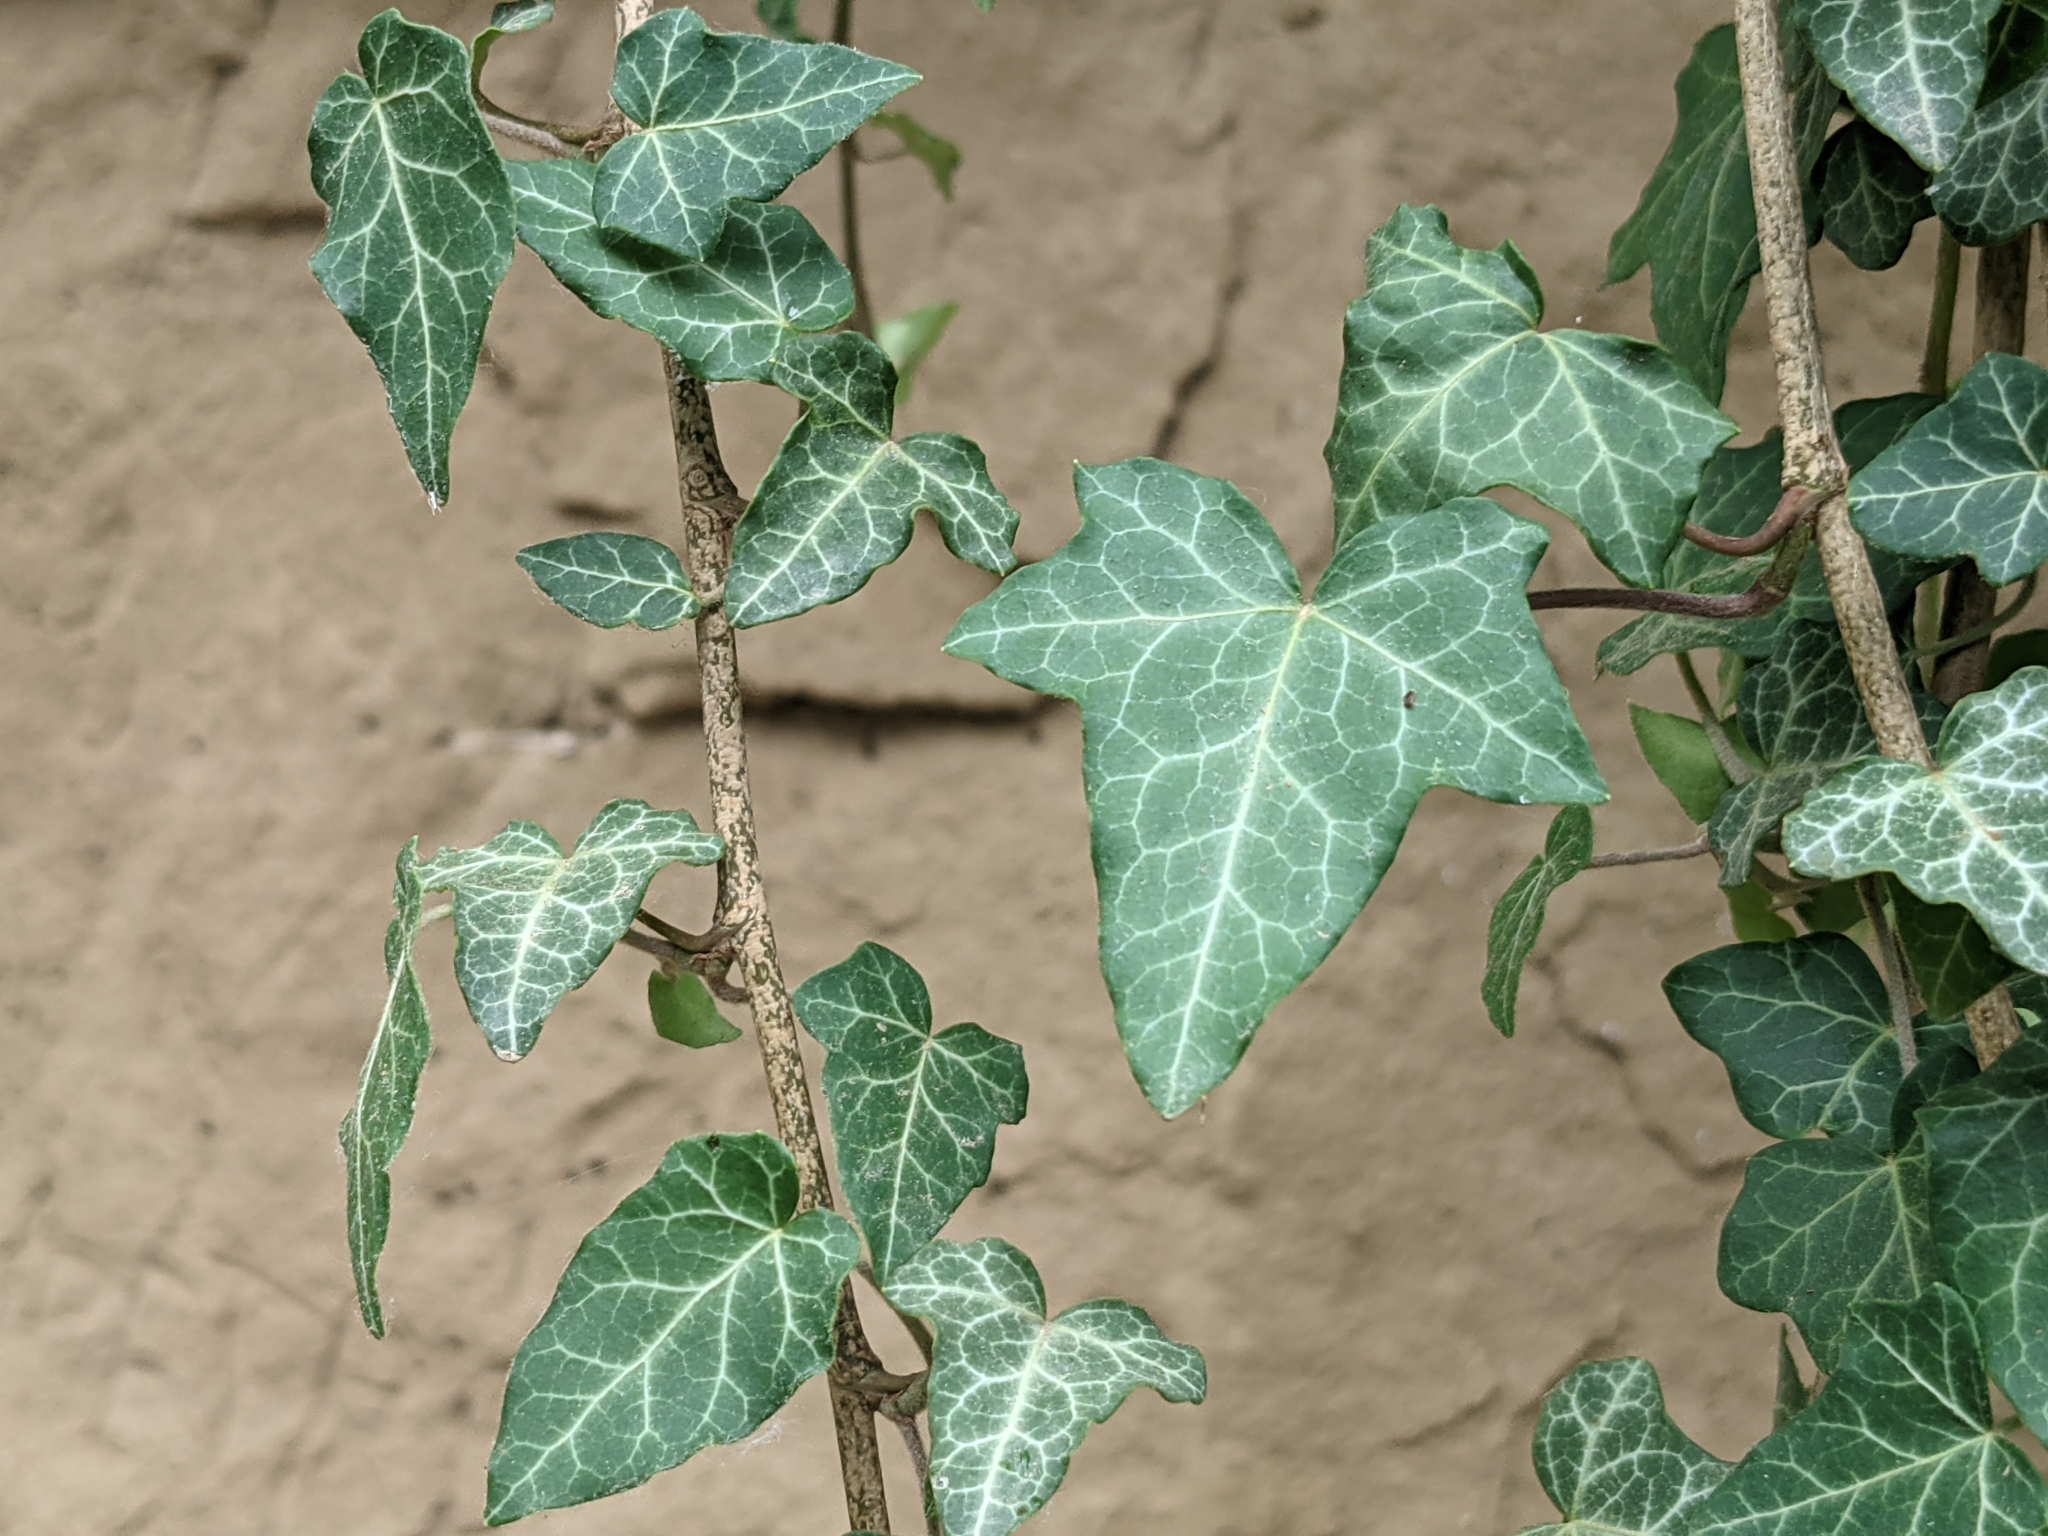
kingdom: Plantae
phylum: Tracheophyta
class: Magnoliopsida
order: Apiales
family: Araliaceae
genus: Hedera
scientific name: Hedera helix
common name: Ivy
